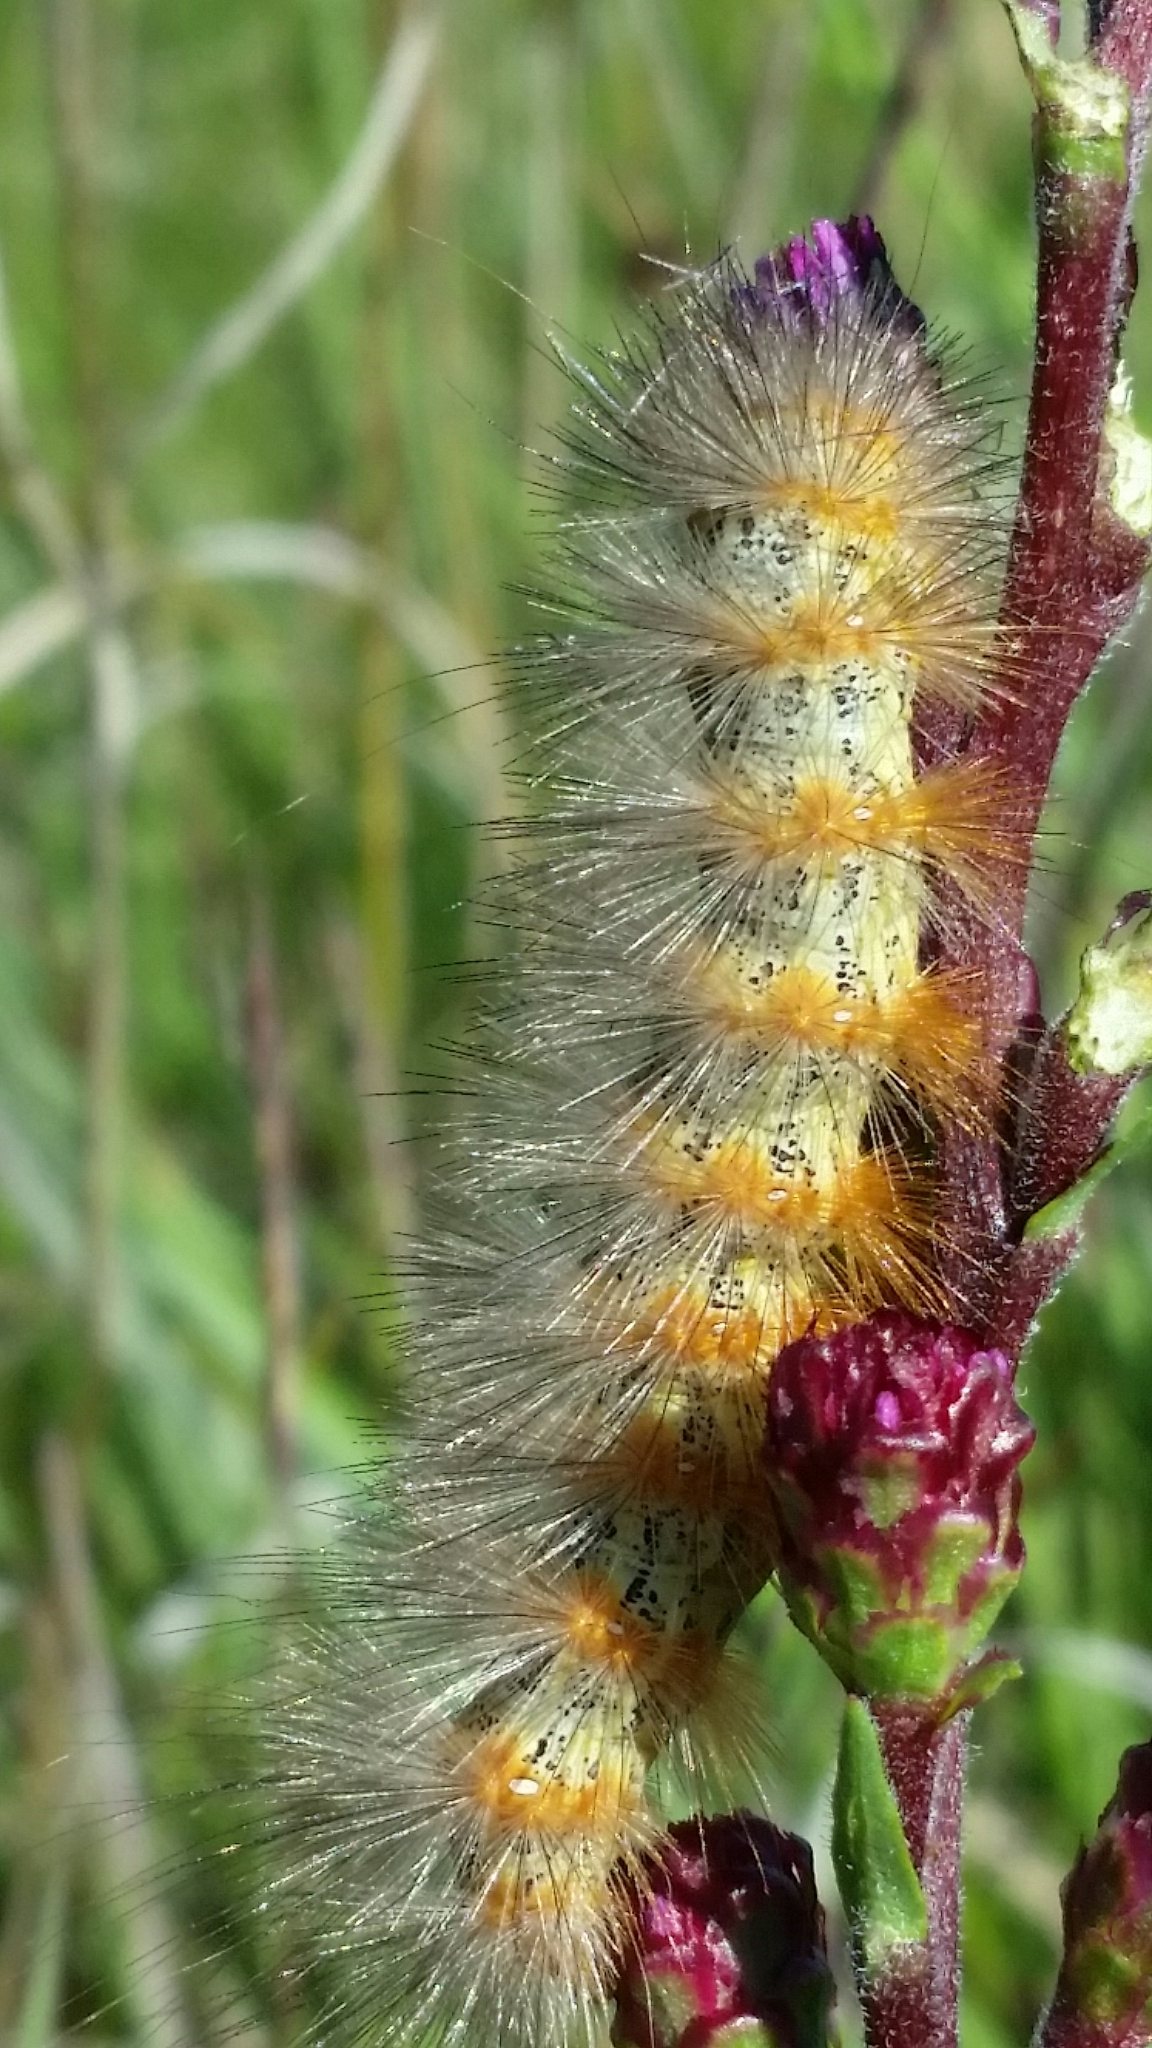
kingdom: Animalia
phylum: Arthropoda
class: Insecta
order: Lepidoptera
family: Erebidae
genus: Estigmene
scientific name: Estigmene acrea
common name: Salt marsh moth
